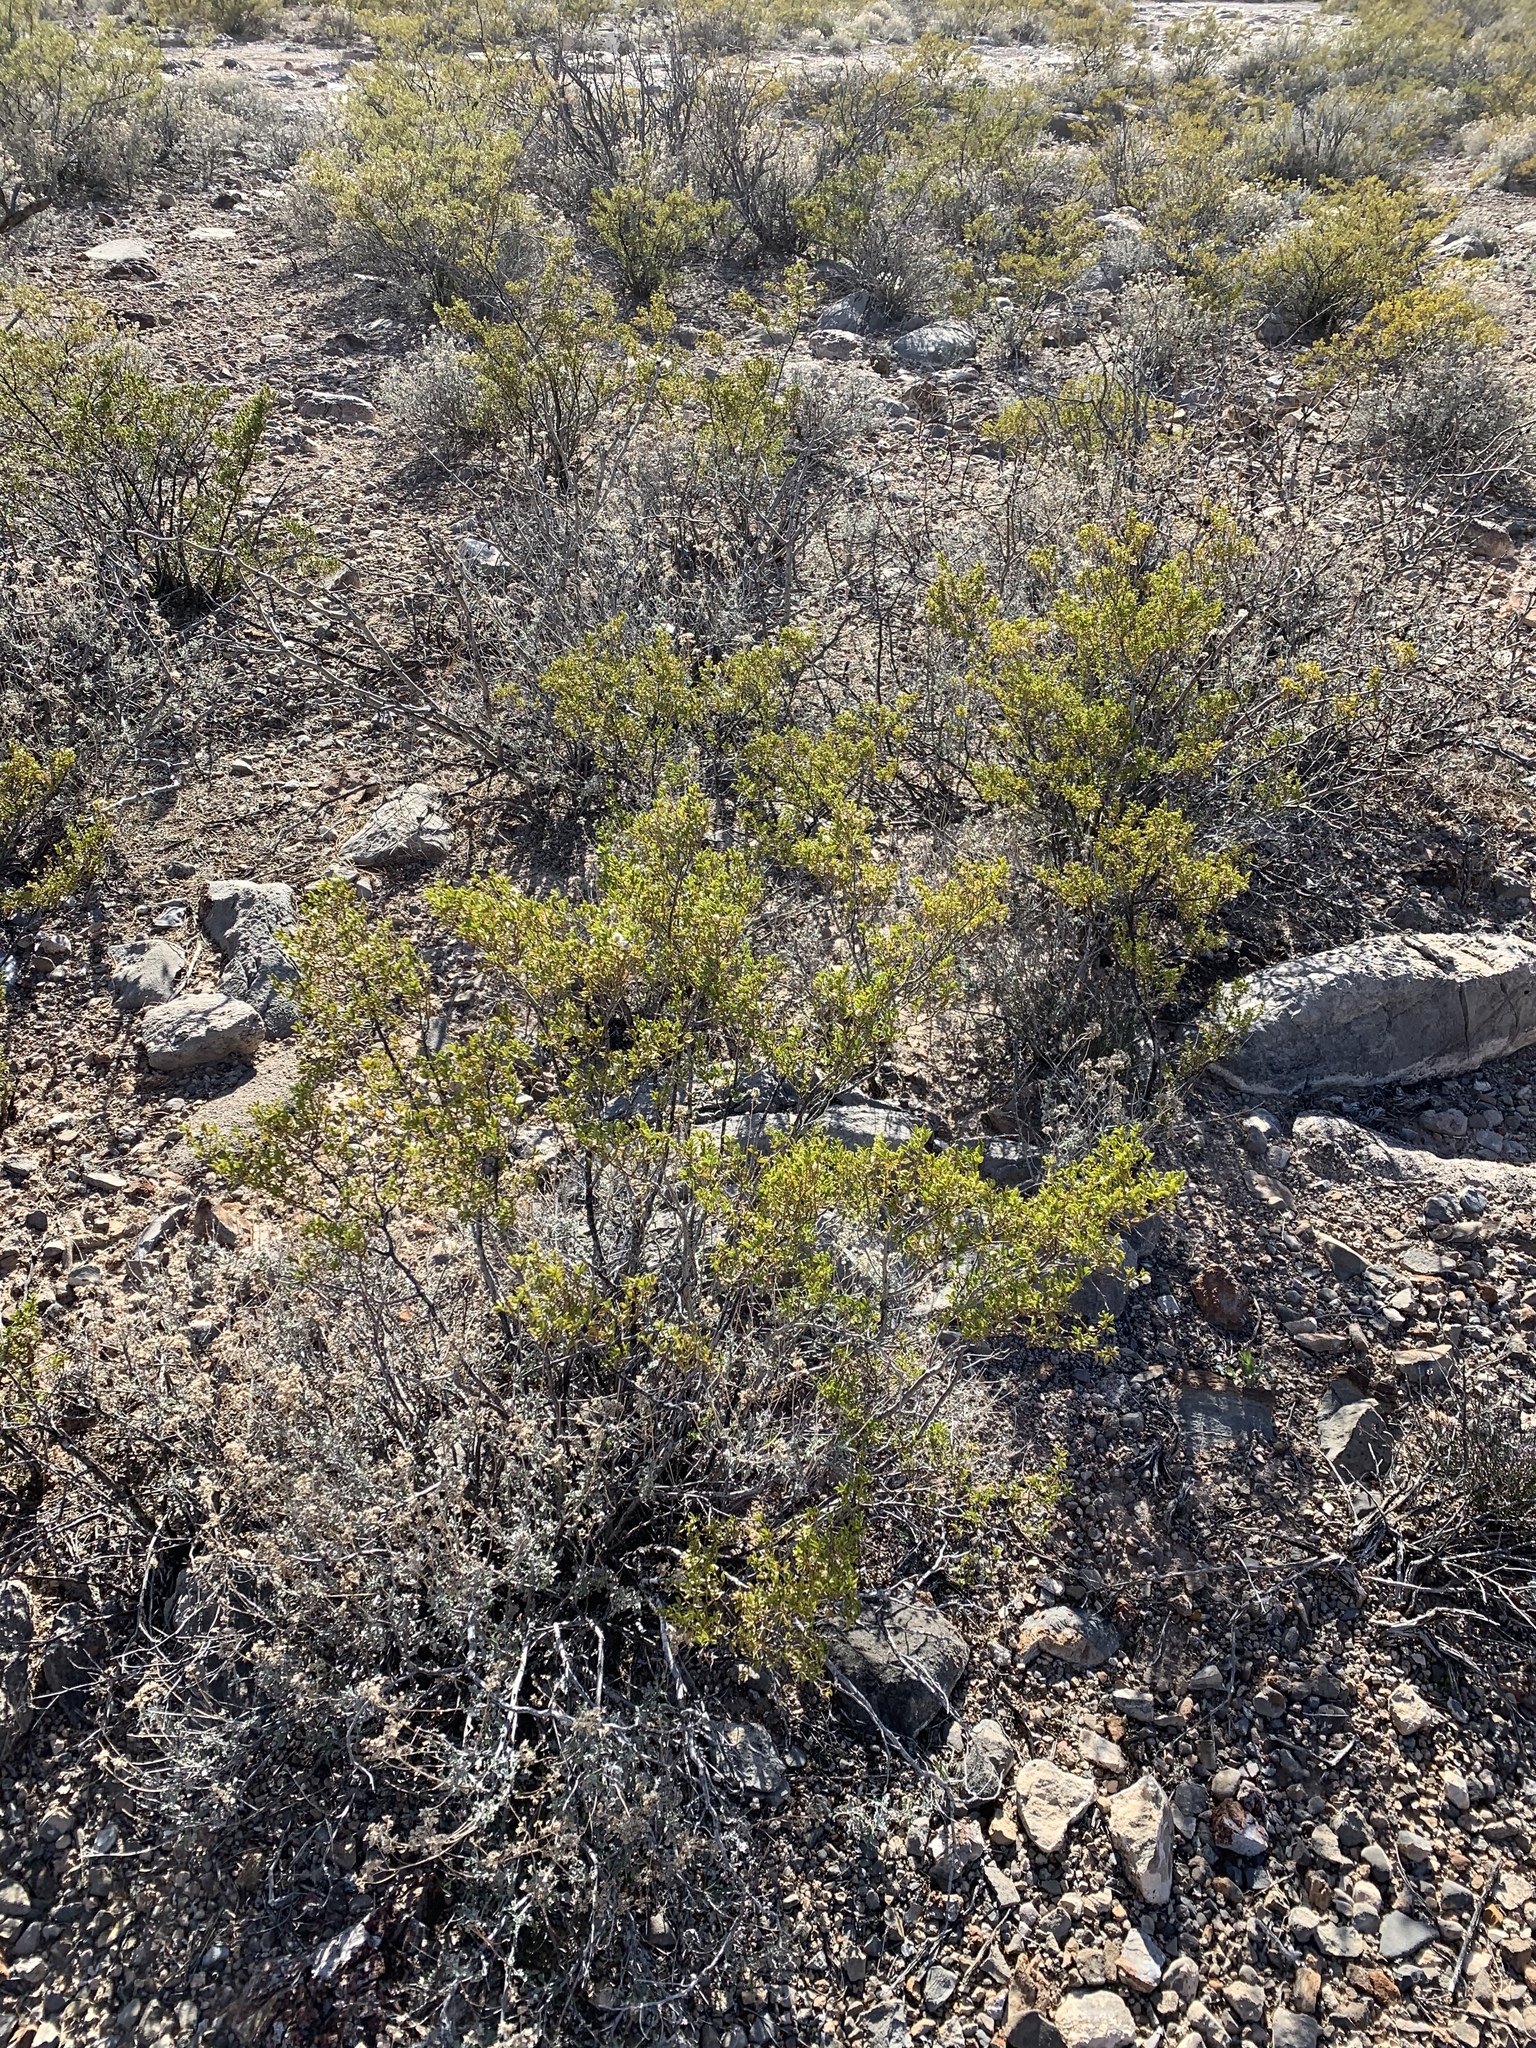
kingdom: Plantae
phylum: Tracheophyta
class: Magnoliopsida
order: Zygophyllales
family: Zygophyllaceae
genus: Larrea
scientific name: Larrea tridentata
